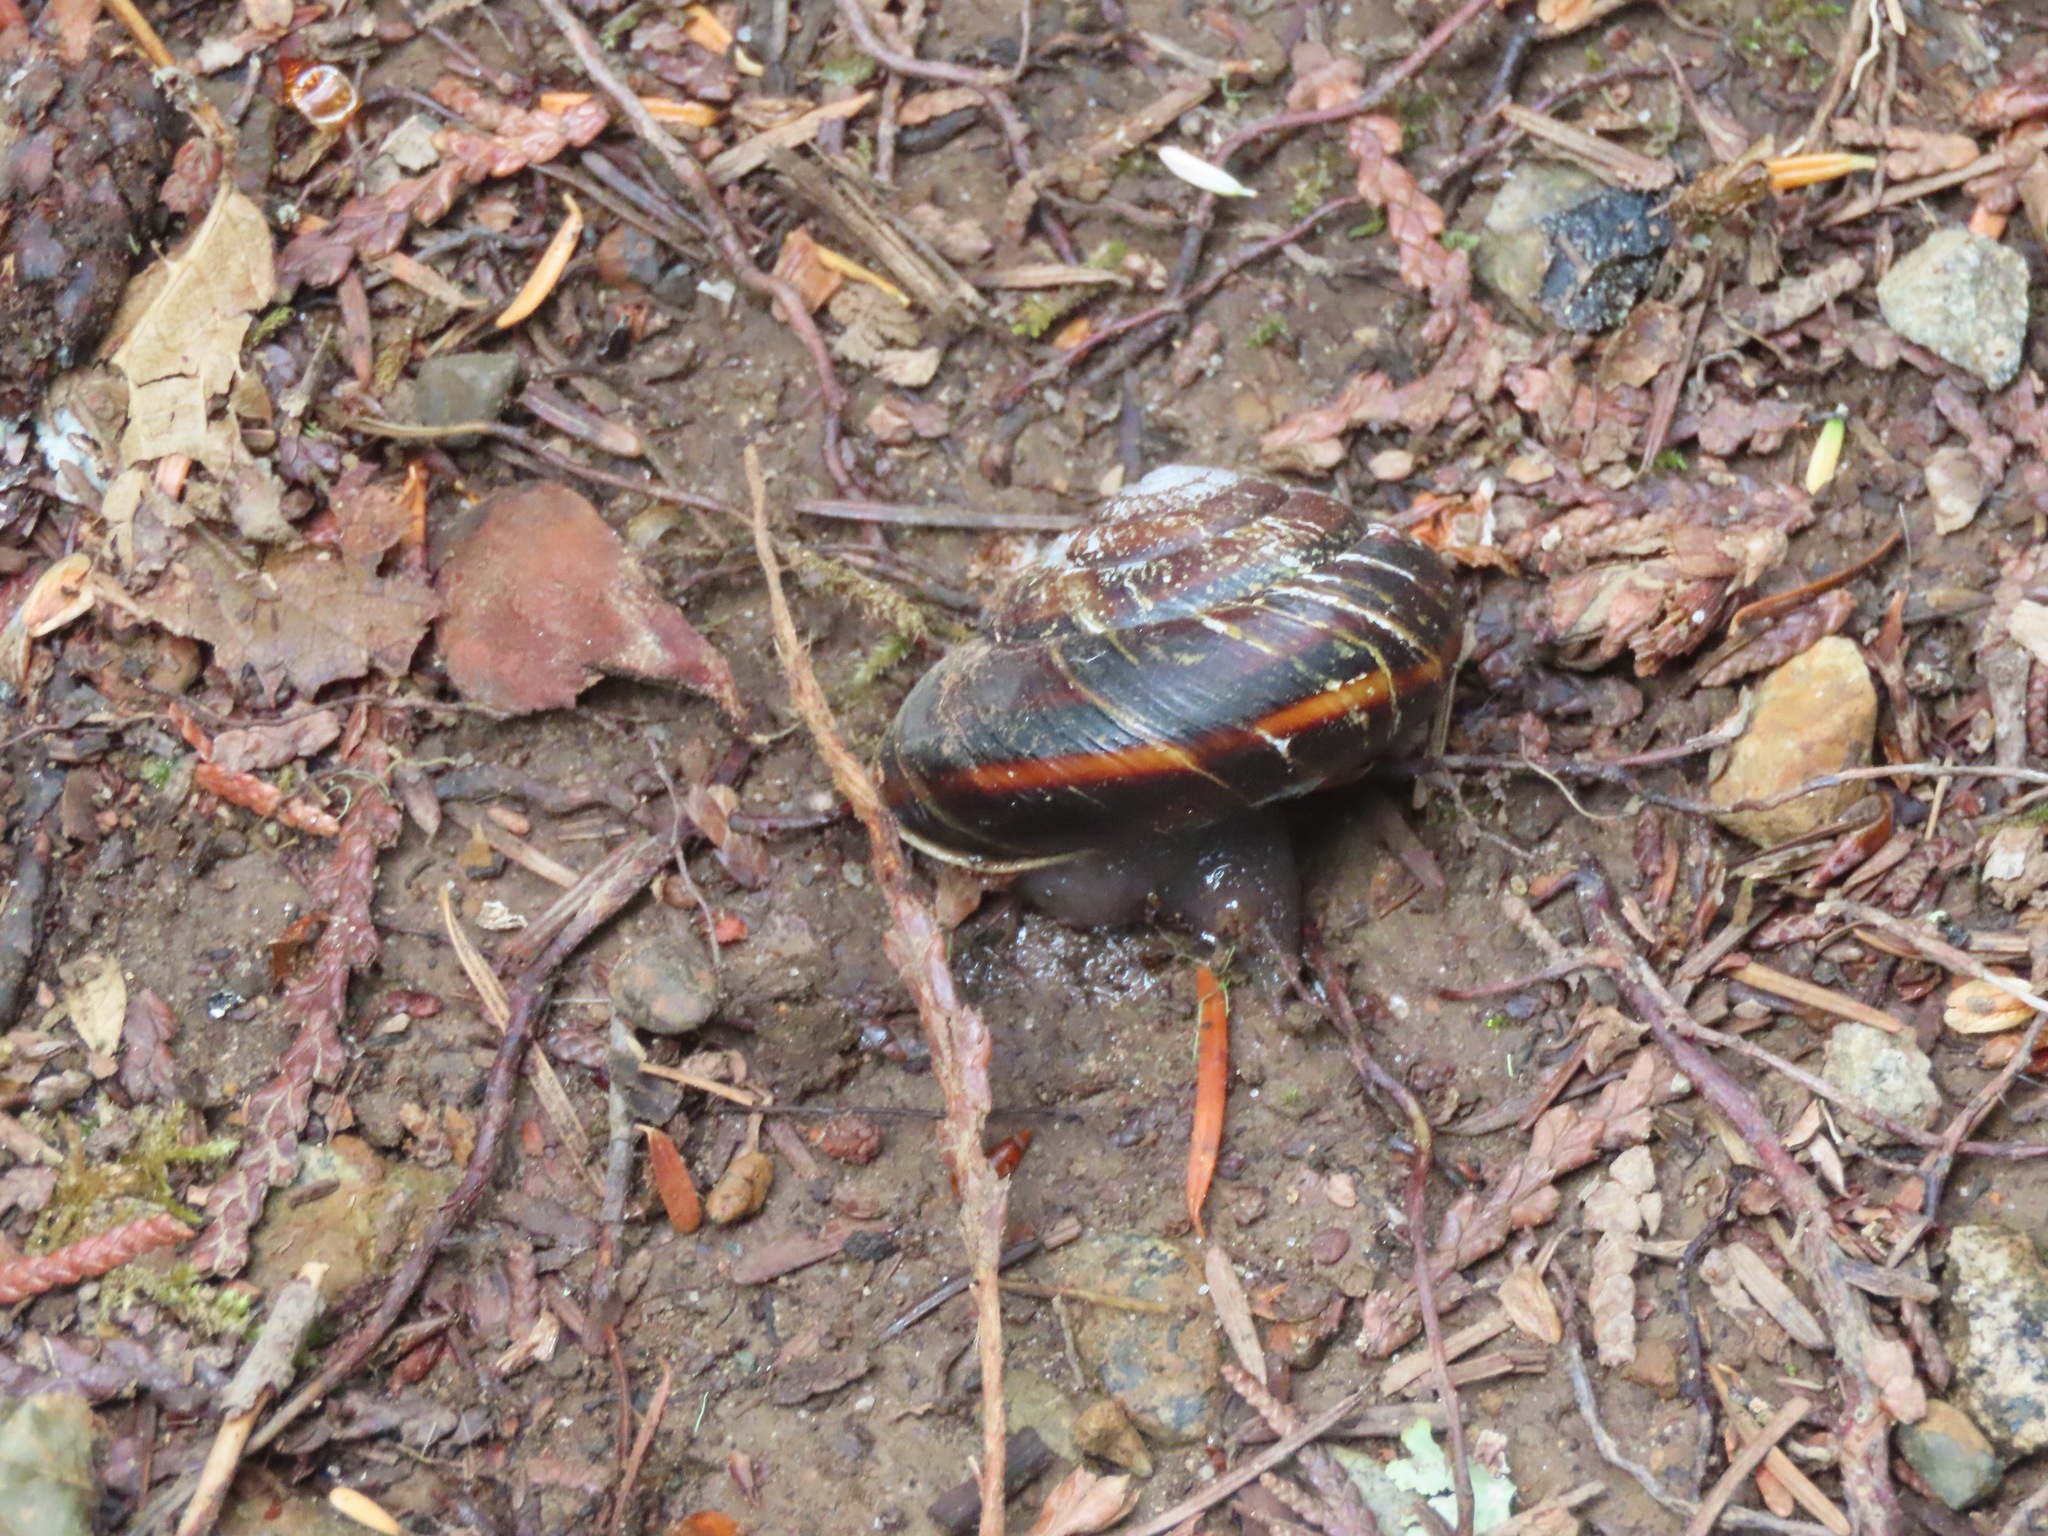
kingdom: Animalia
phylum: Mollusca
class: Gastropoda
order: Stylommatophora
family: Xanthonychidae
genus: Monadenia
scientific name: Monadenia fidelis
